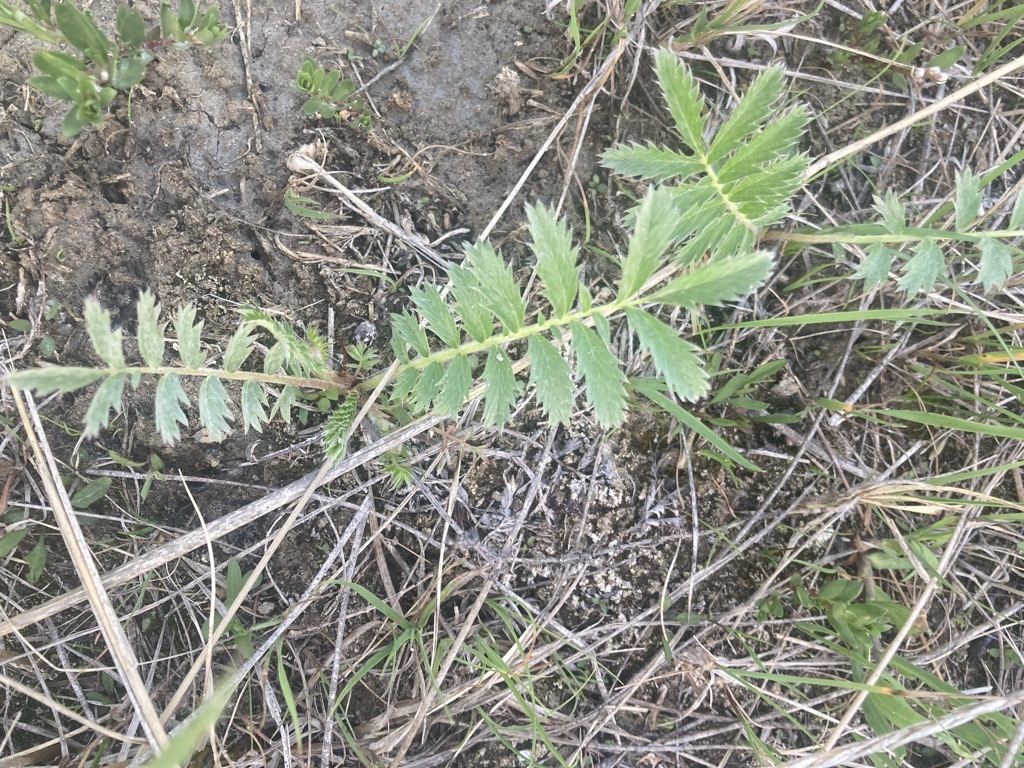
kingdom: Plantae
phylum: Tracheophyta
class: Magnoliopsida
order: Rosales
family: Rosaceae
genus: Argentina
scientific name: Argentina anserina
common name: Common silverweed
